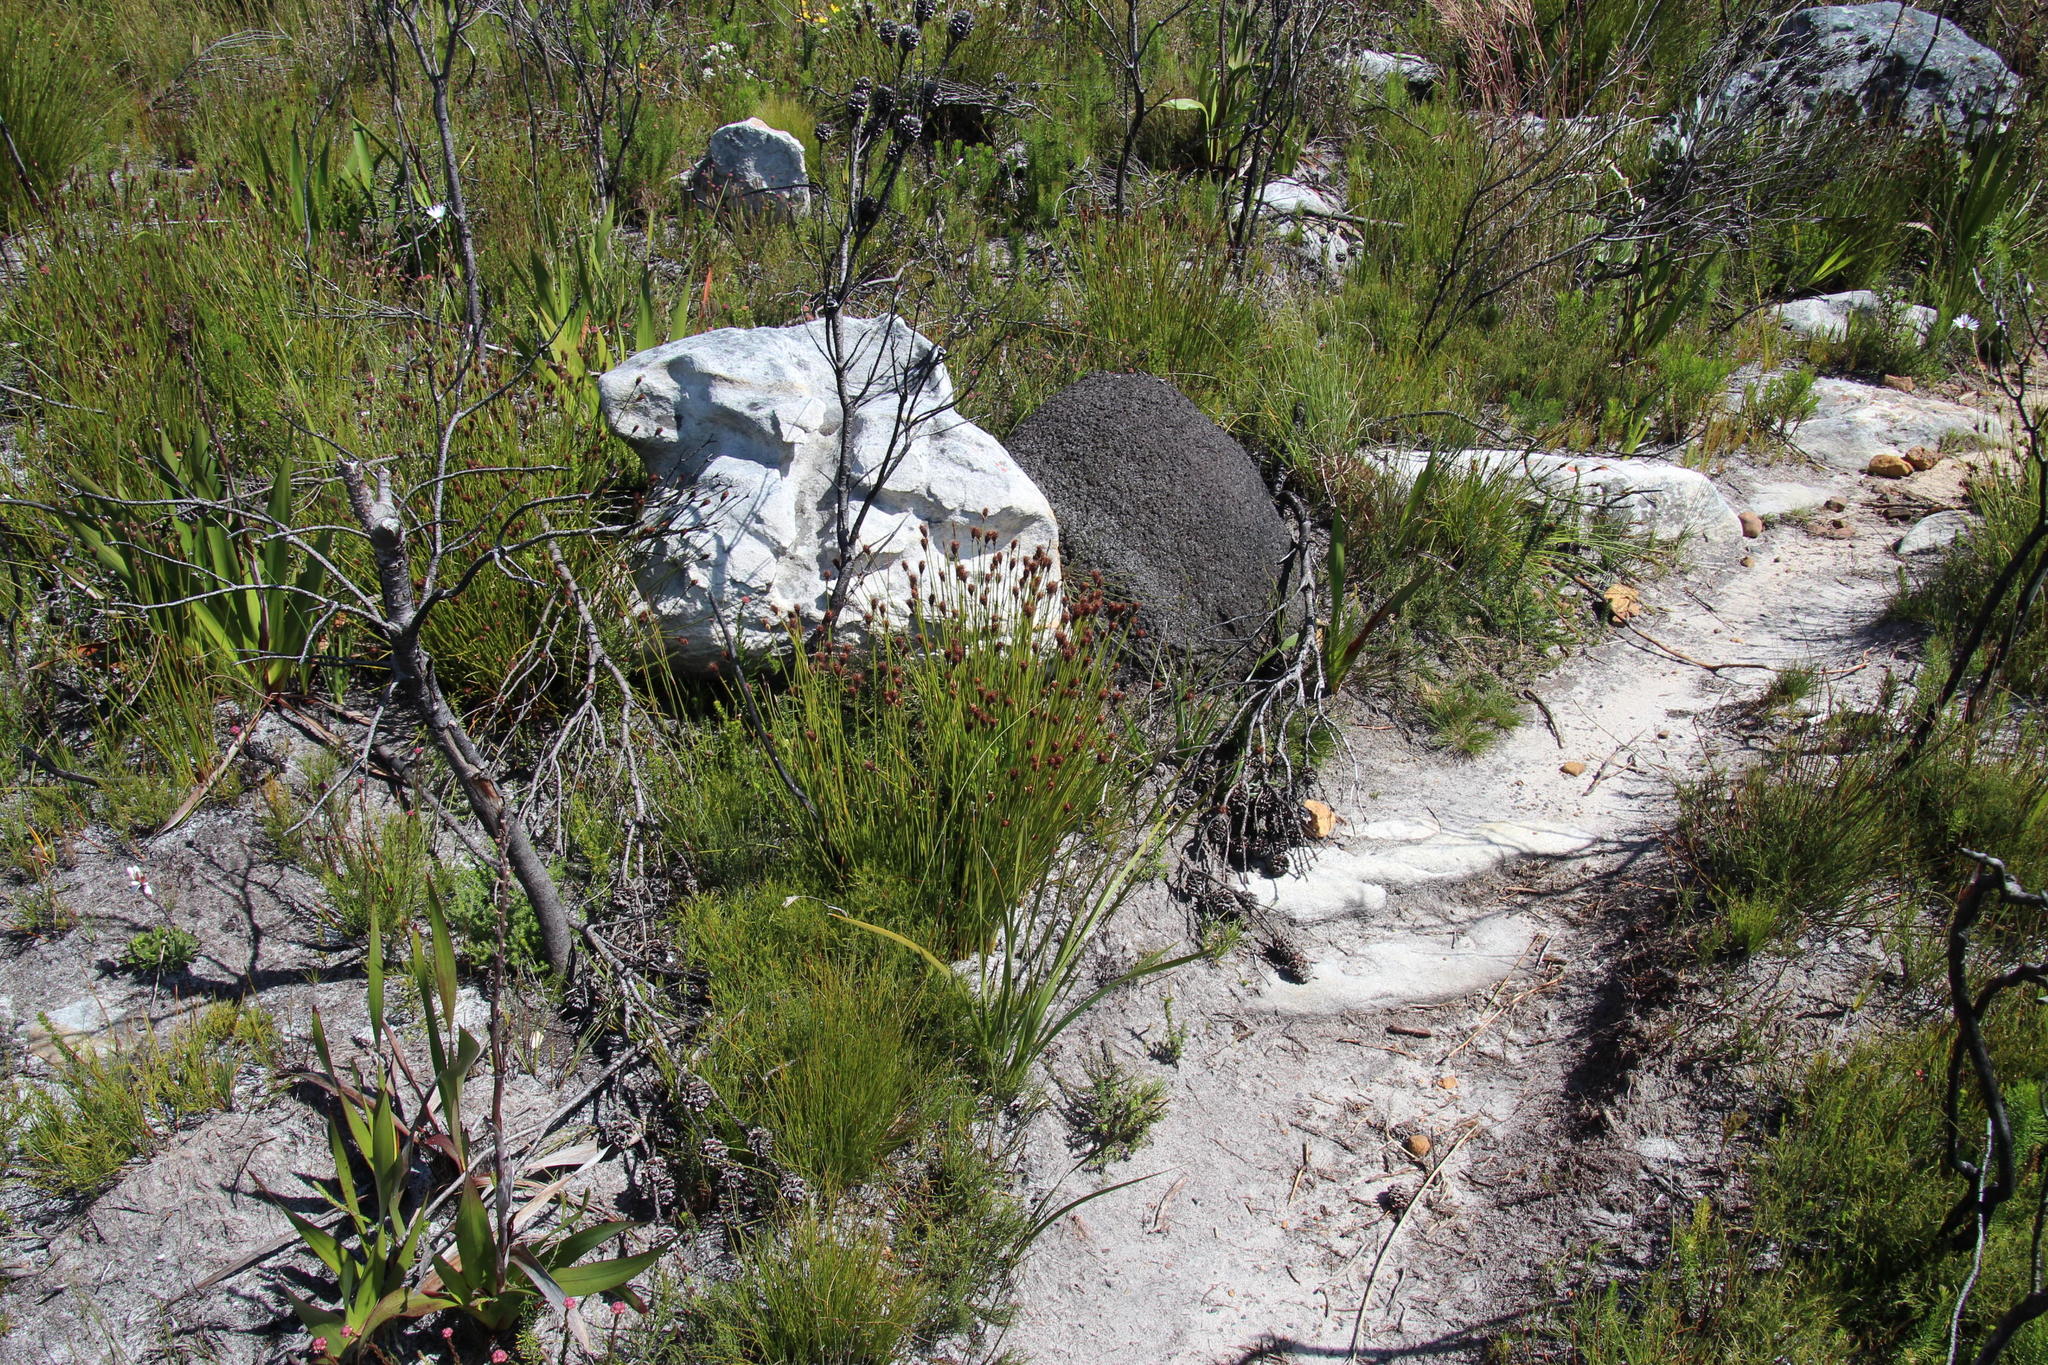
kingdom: Animalia
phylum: Arthropoda
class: Insecta
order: Blattodea
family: Termitidae
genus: Amitermes
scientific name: Amitermes hastatus
